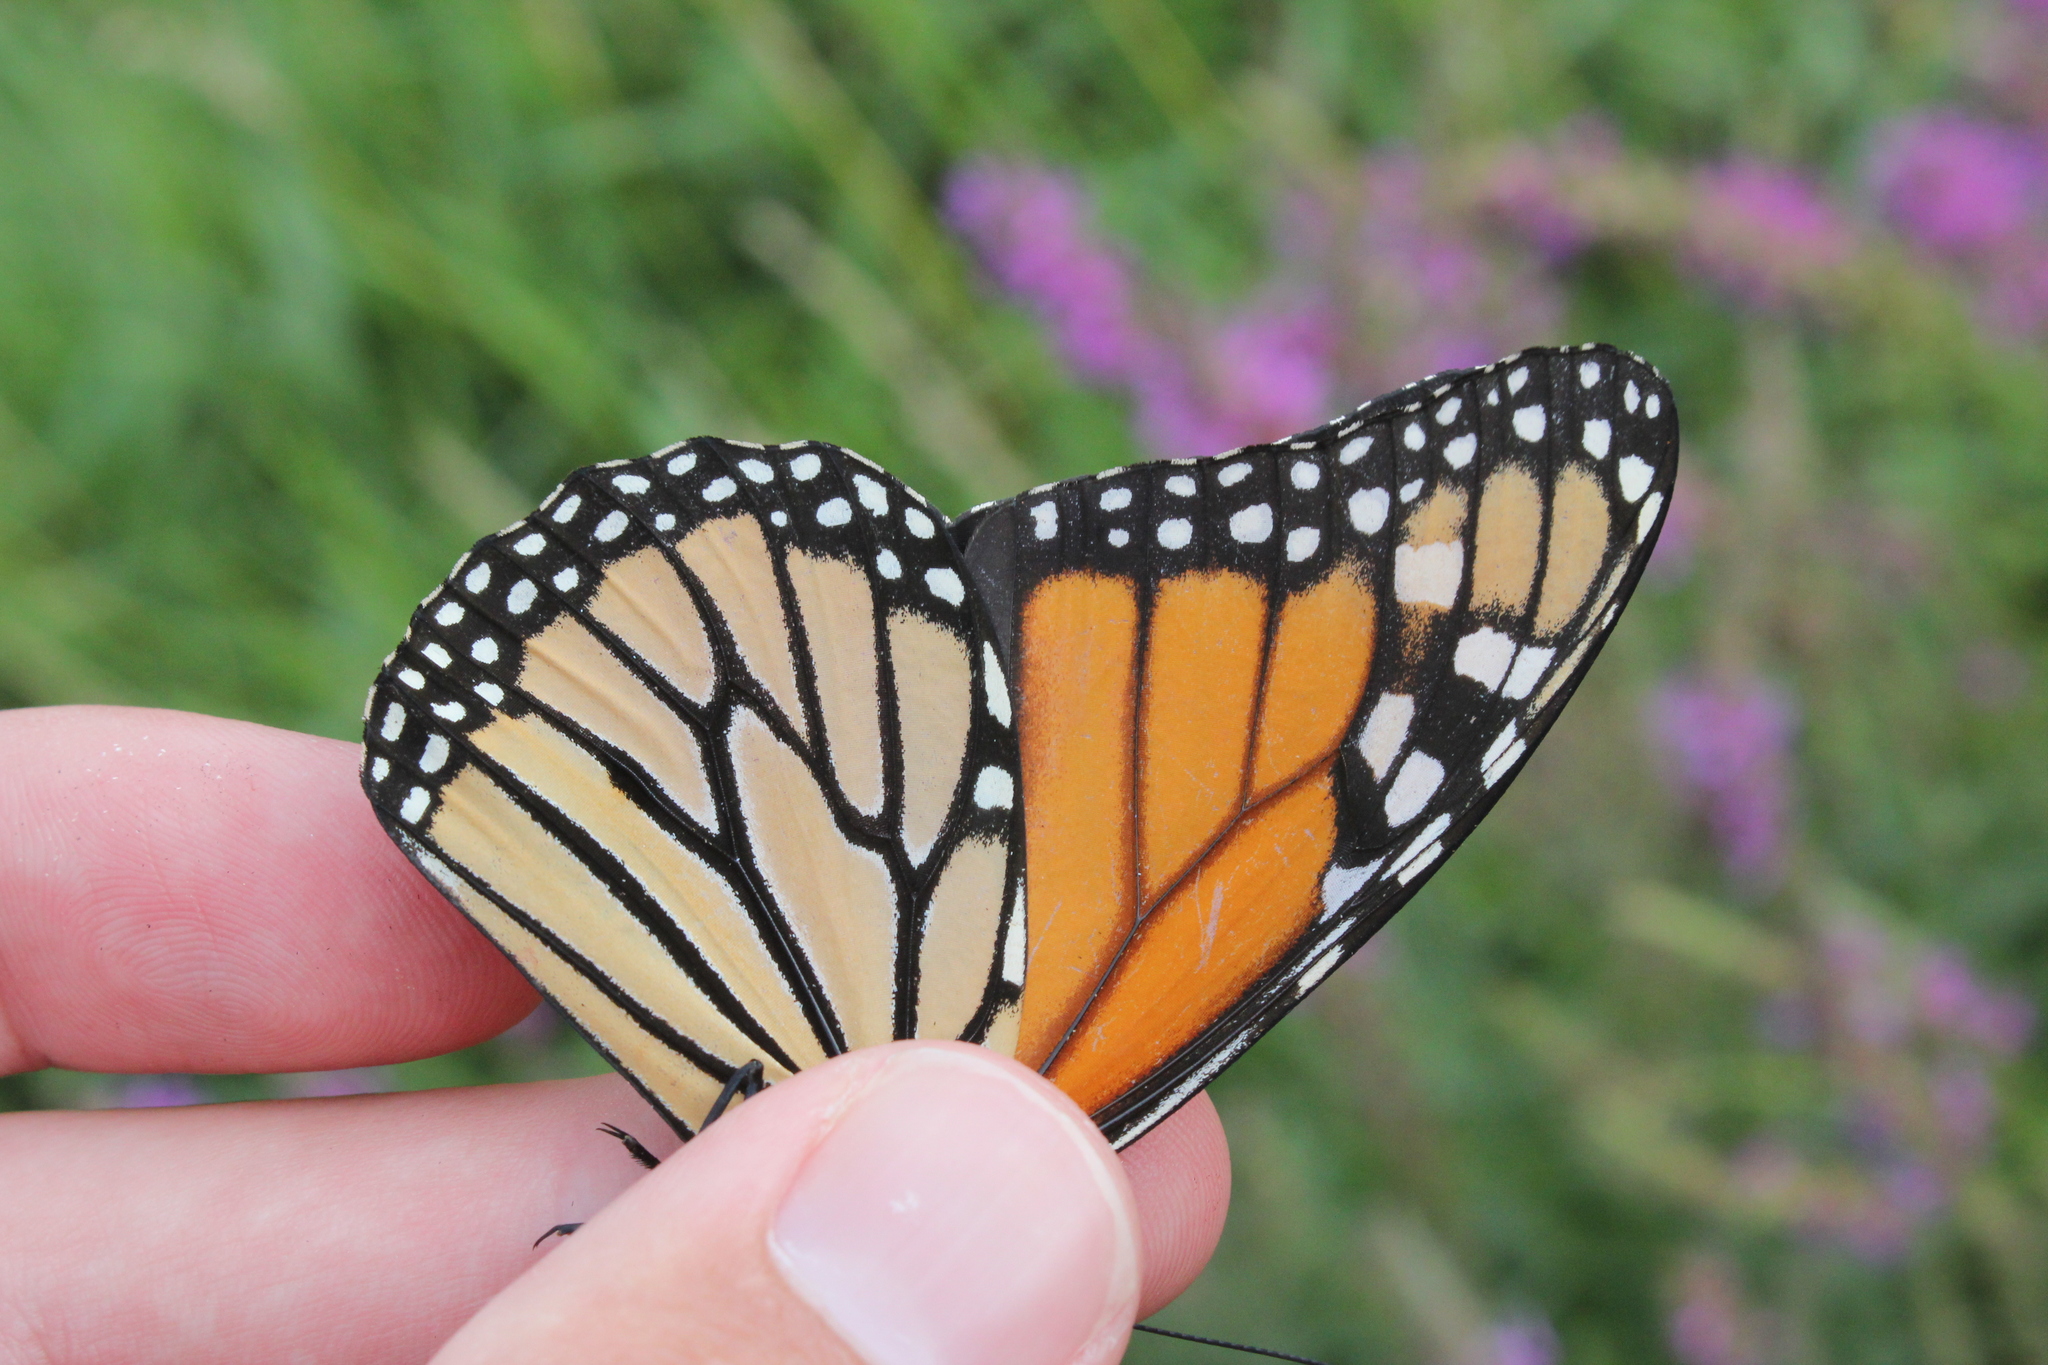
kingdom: Animalia
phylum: Arthropoda
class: Insecta
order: Lepidoptera
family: Nymphalidae
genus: Danaus
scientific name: Danaus plexippus
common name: Monarch
